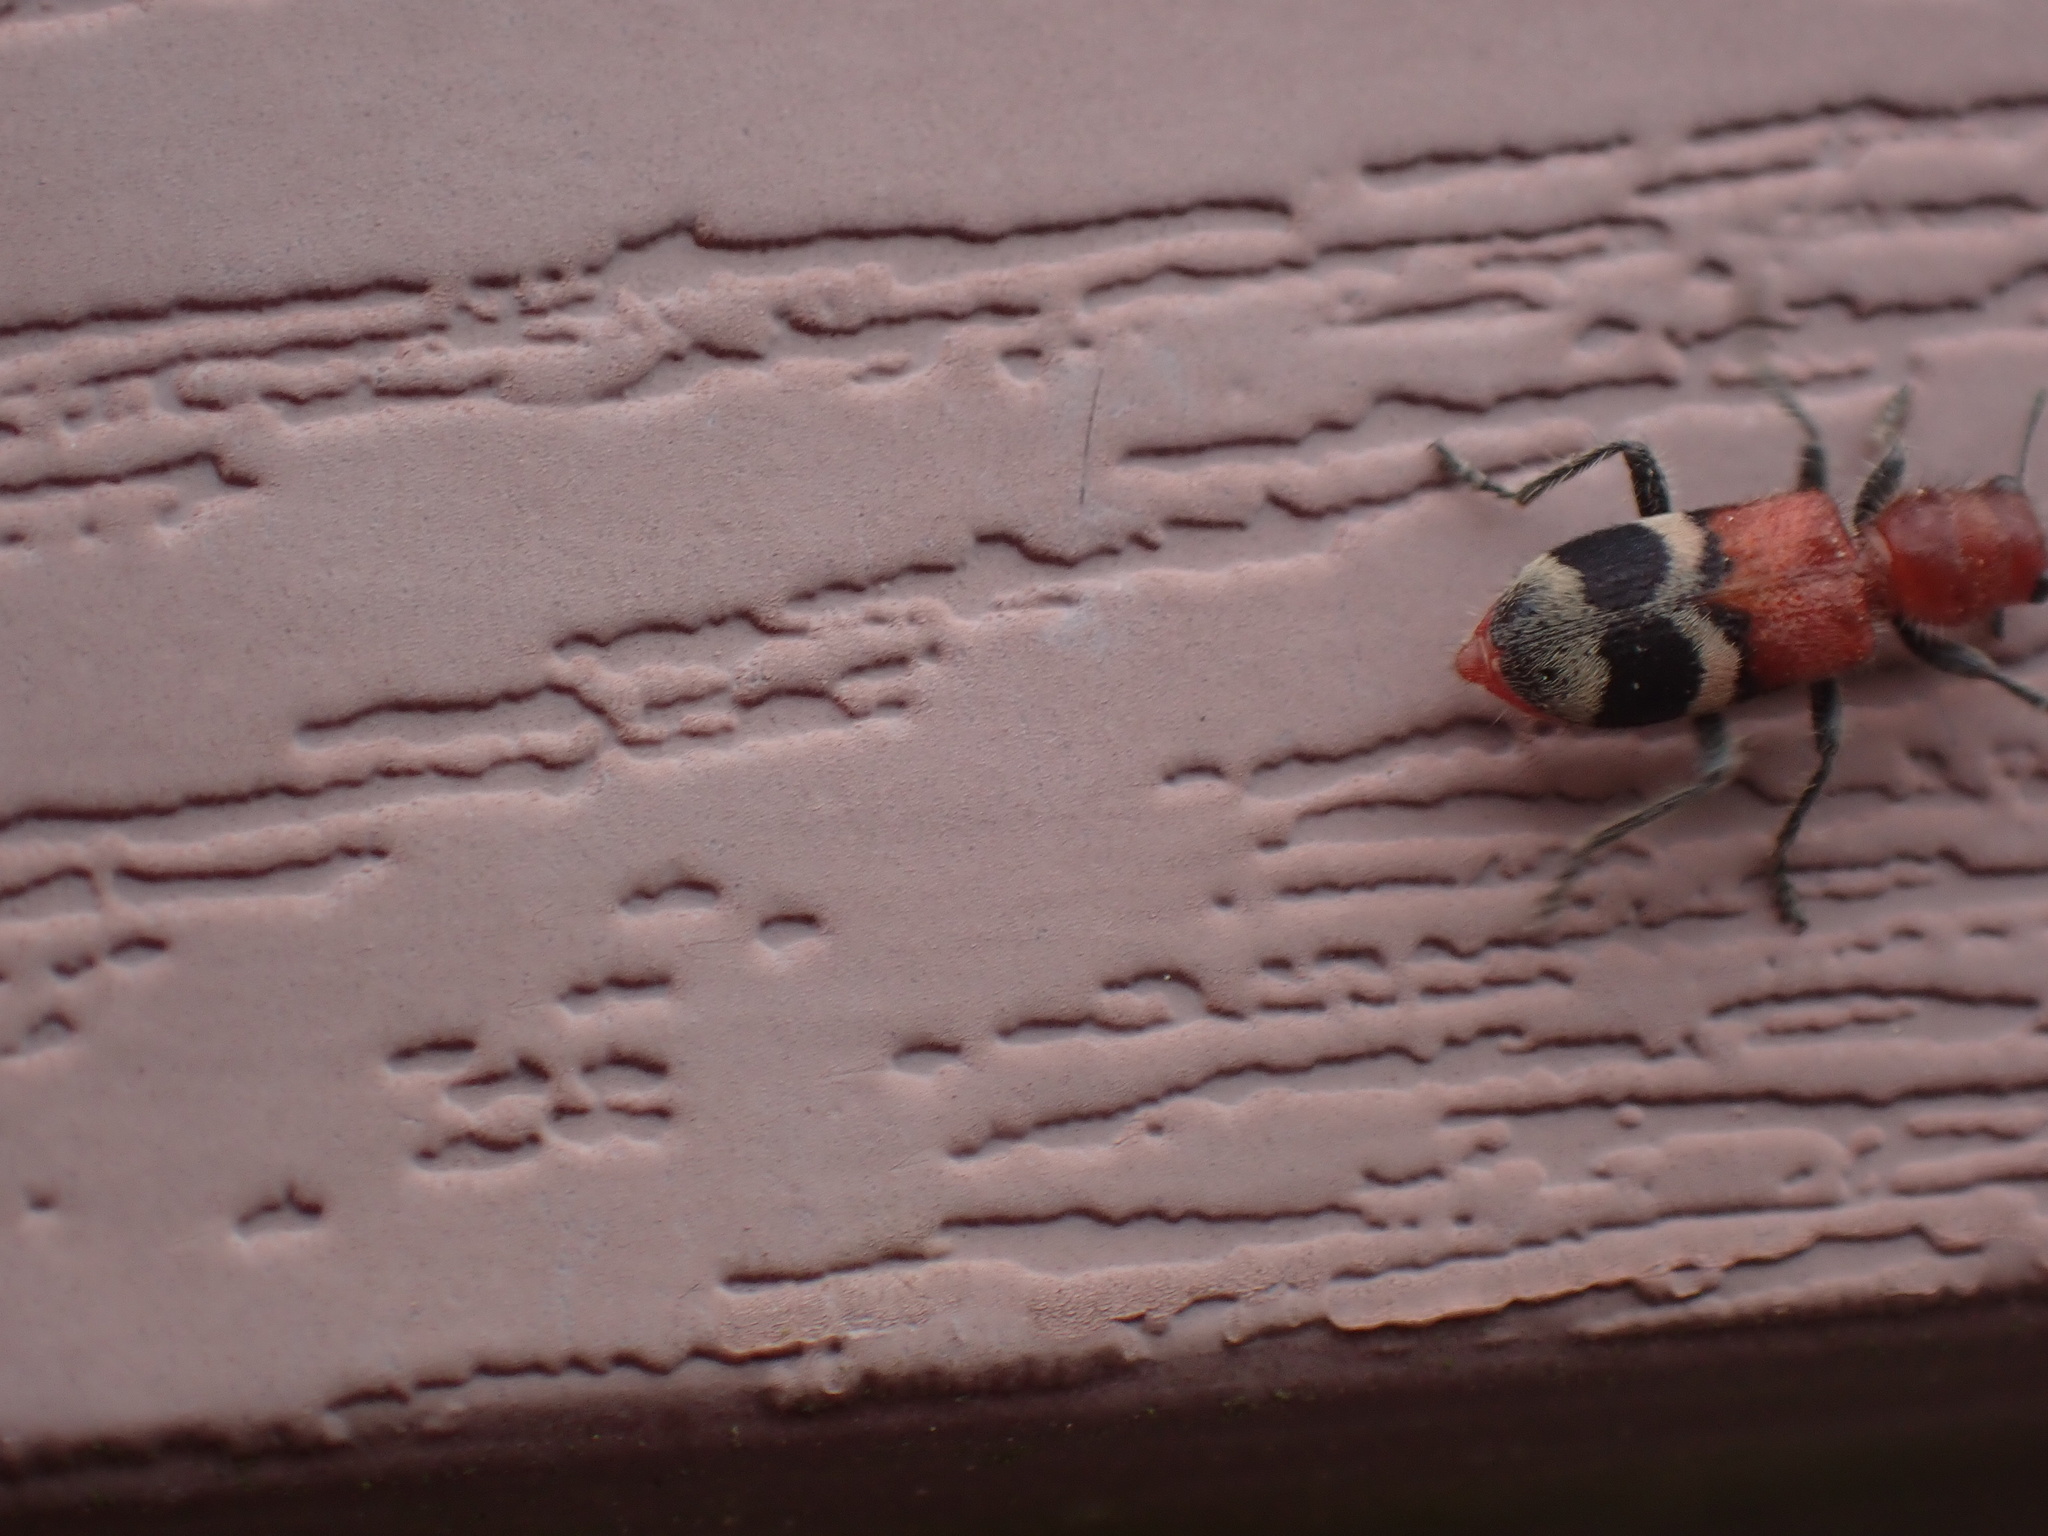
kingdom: Animalia
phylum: Arthropoda
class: Insecta
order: Coleoptera
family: Cleridae
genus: Enoclerus
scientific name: Enoclerus nigripes
